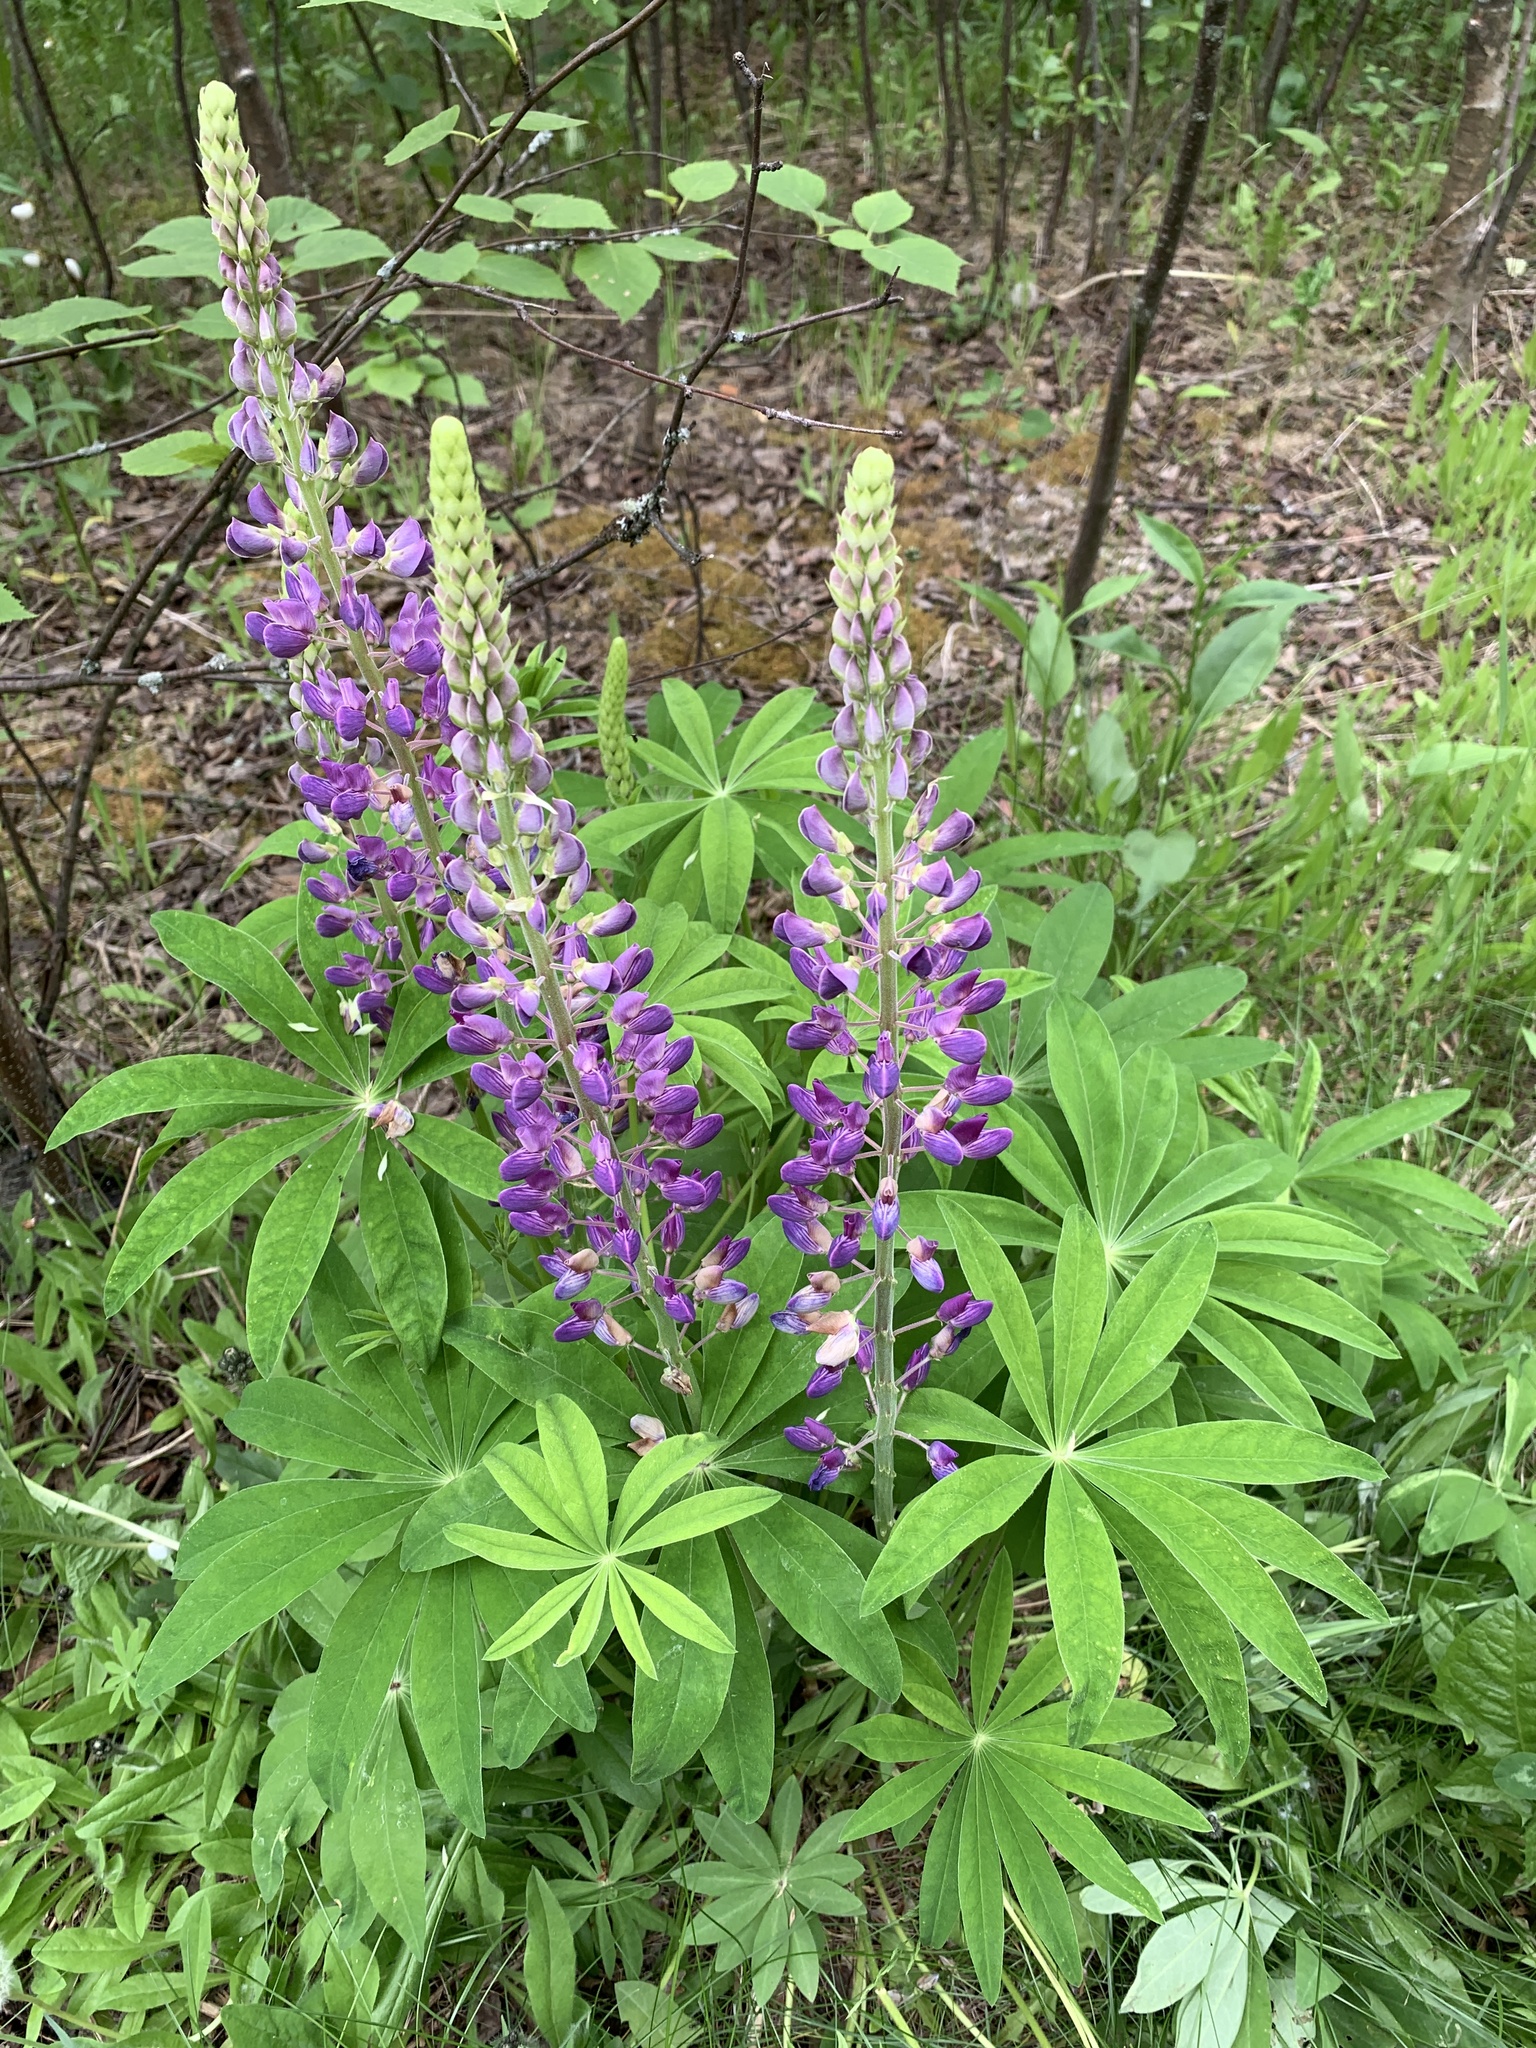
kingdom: Plantae
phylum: Tracheophyta
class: Magnoliopsida
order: Fabales
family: Fabaceae
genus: Lupinus
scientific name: Lupinus polyphyllus
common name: Garden lupin
